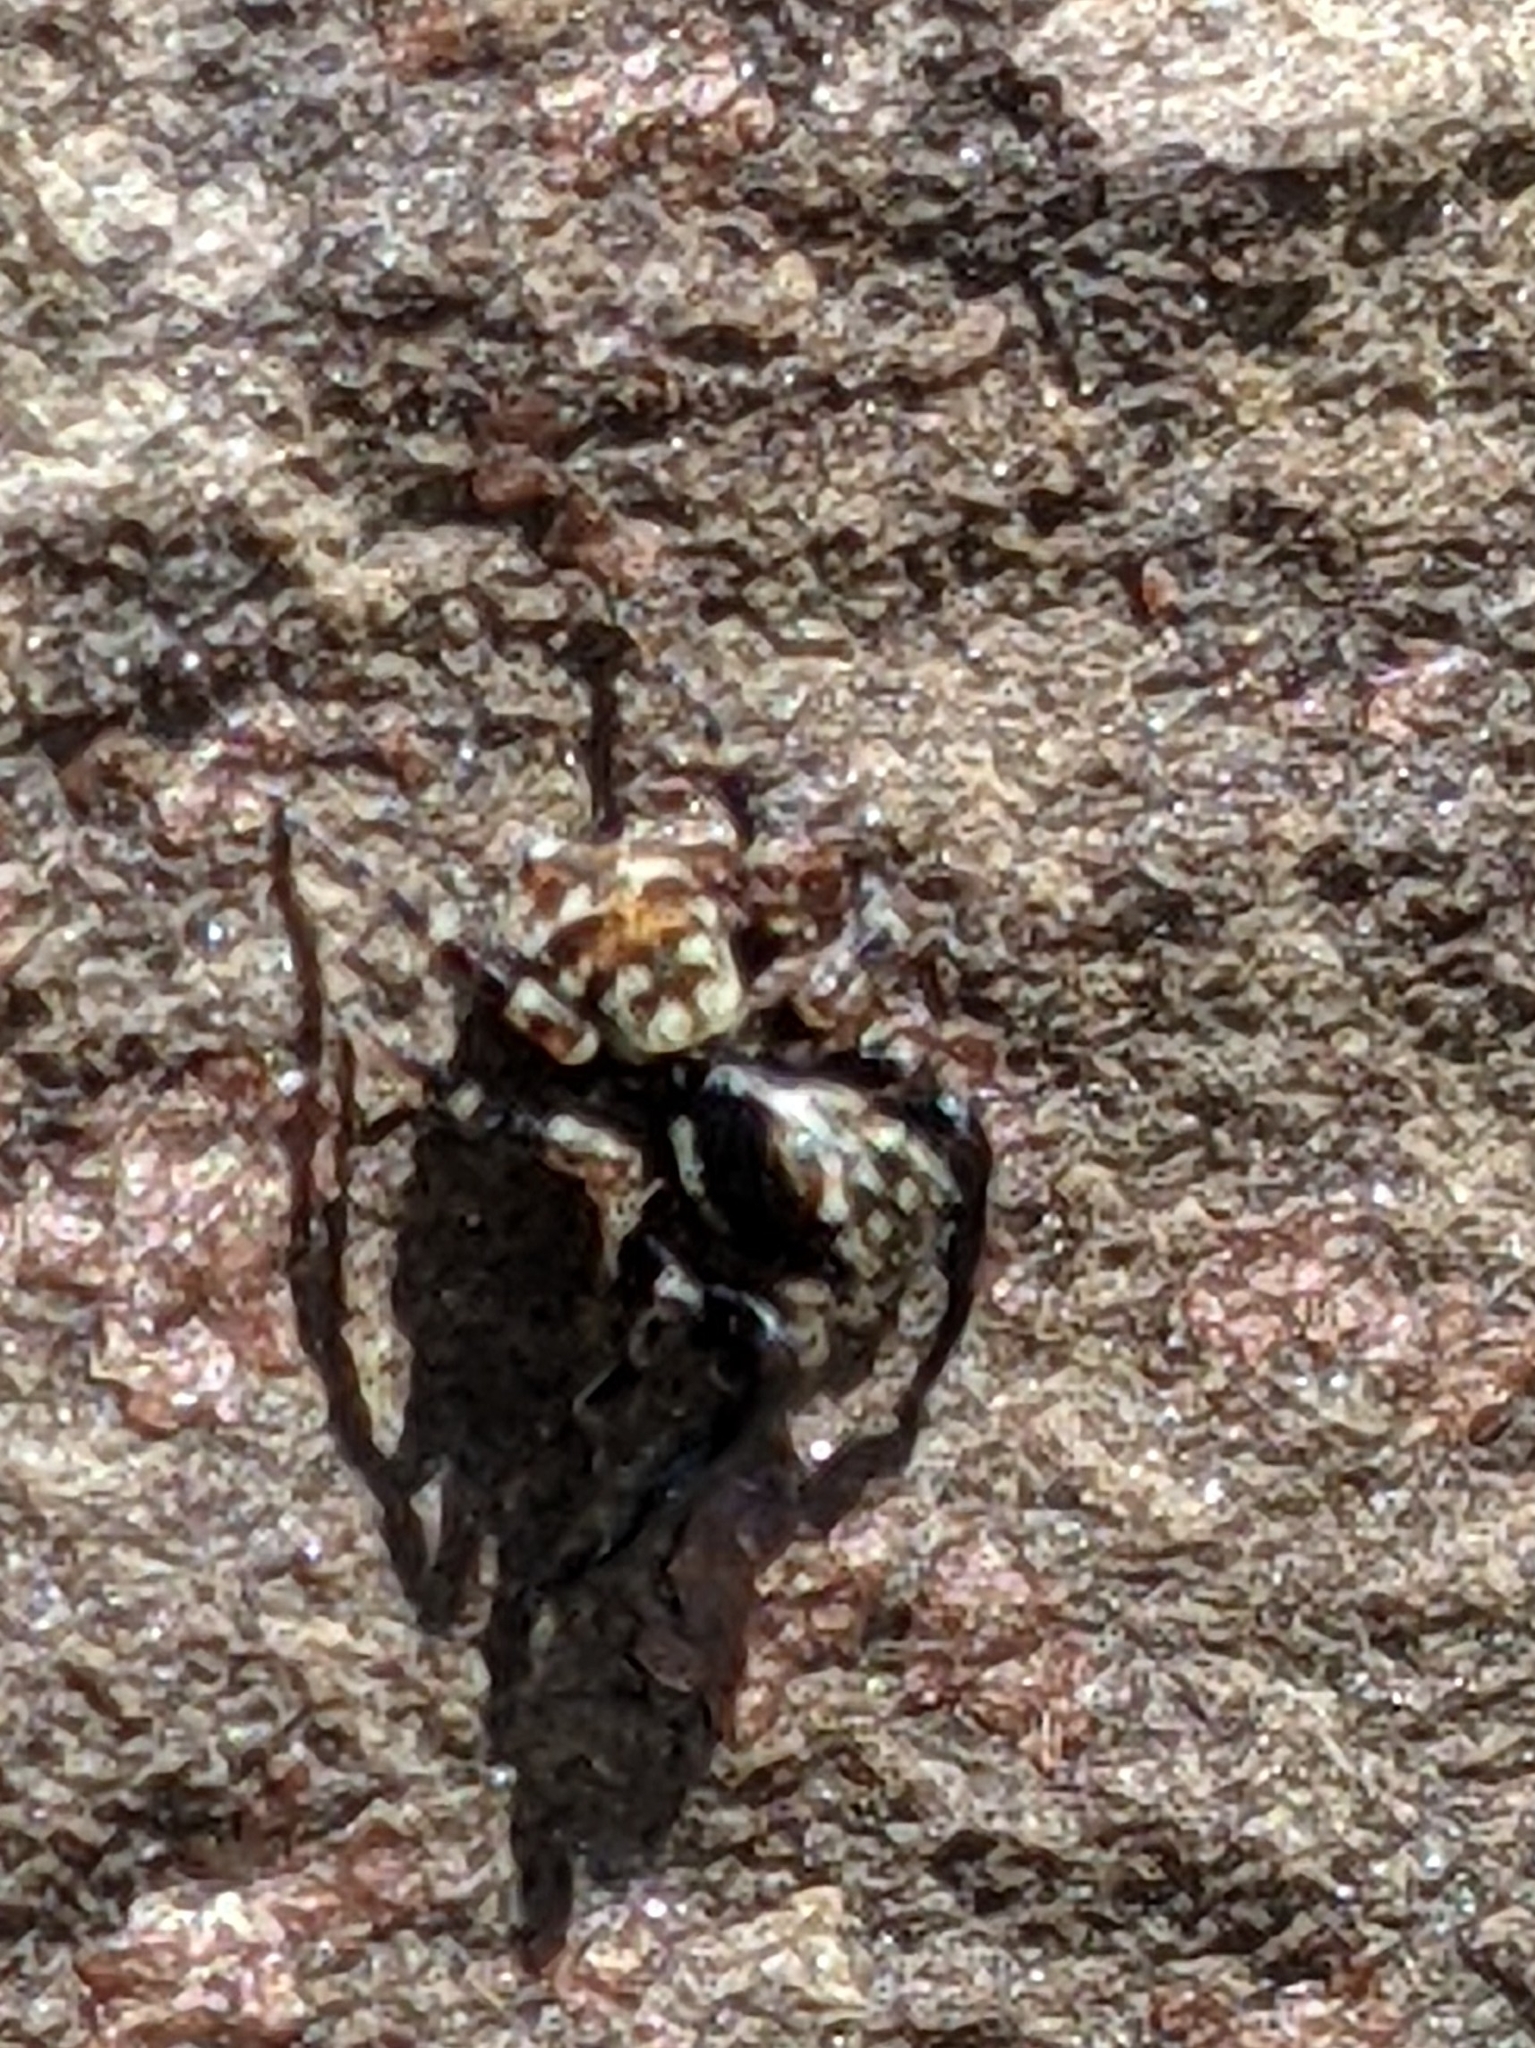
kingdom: Animalia
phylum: Arthropoda
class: Arachnida
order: Araneae
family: Salticidae
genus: Pseudeuophrys
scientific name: Pseudeuophrys erratica
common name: Jumping spider
